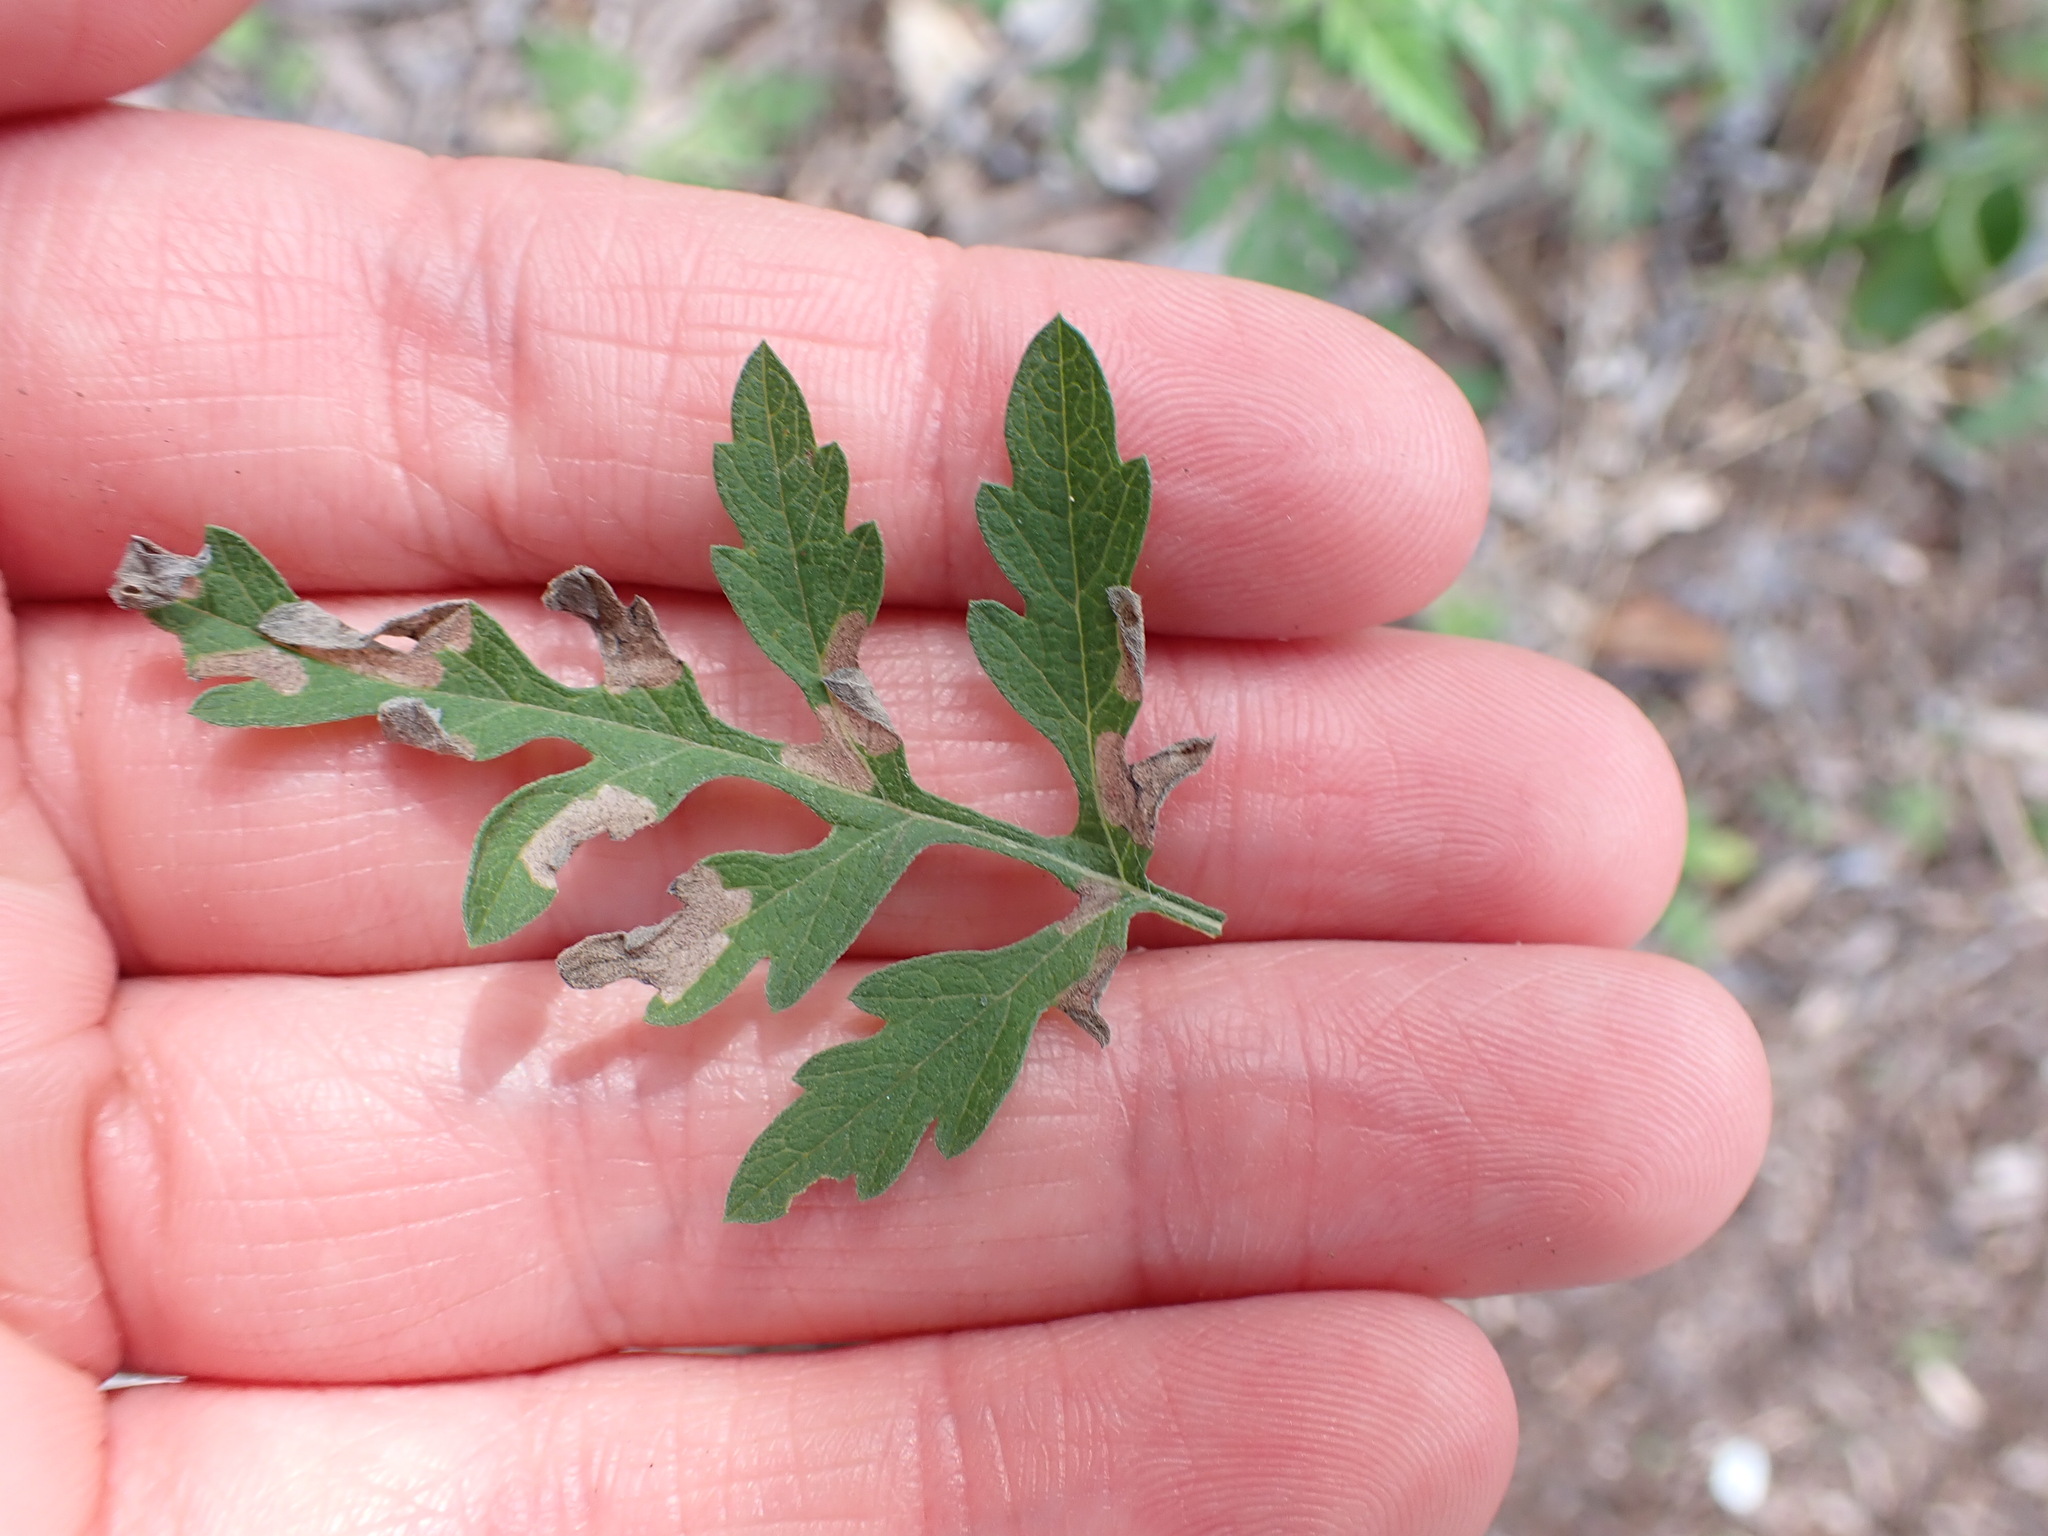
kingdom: Plantae
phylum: Tracheophyta
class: Magnoliopsida
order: Asterales
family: Asteraceae
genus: Ambrosia
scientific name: Ambrosia artemisiifolia
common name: Annual ragweed
